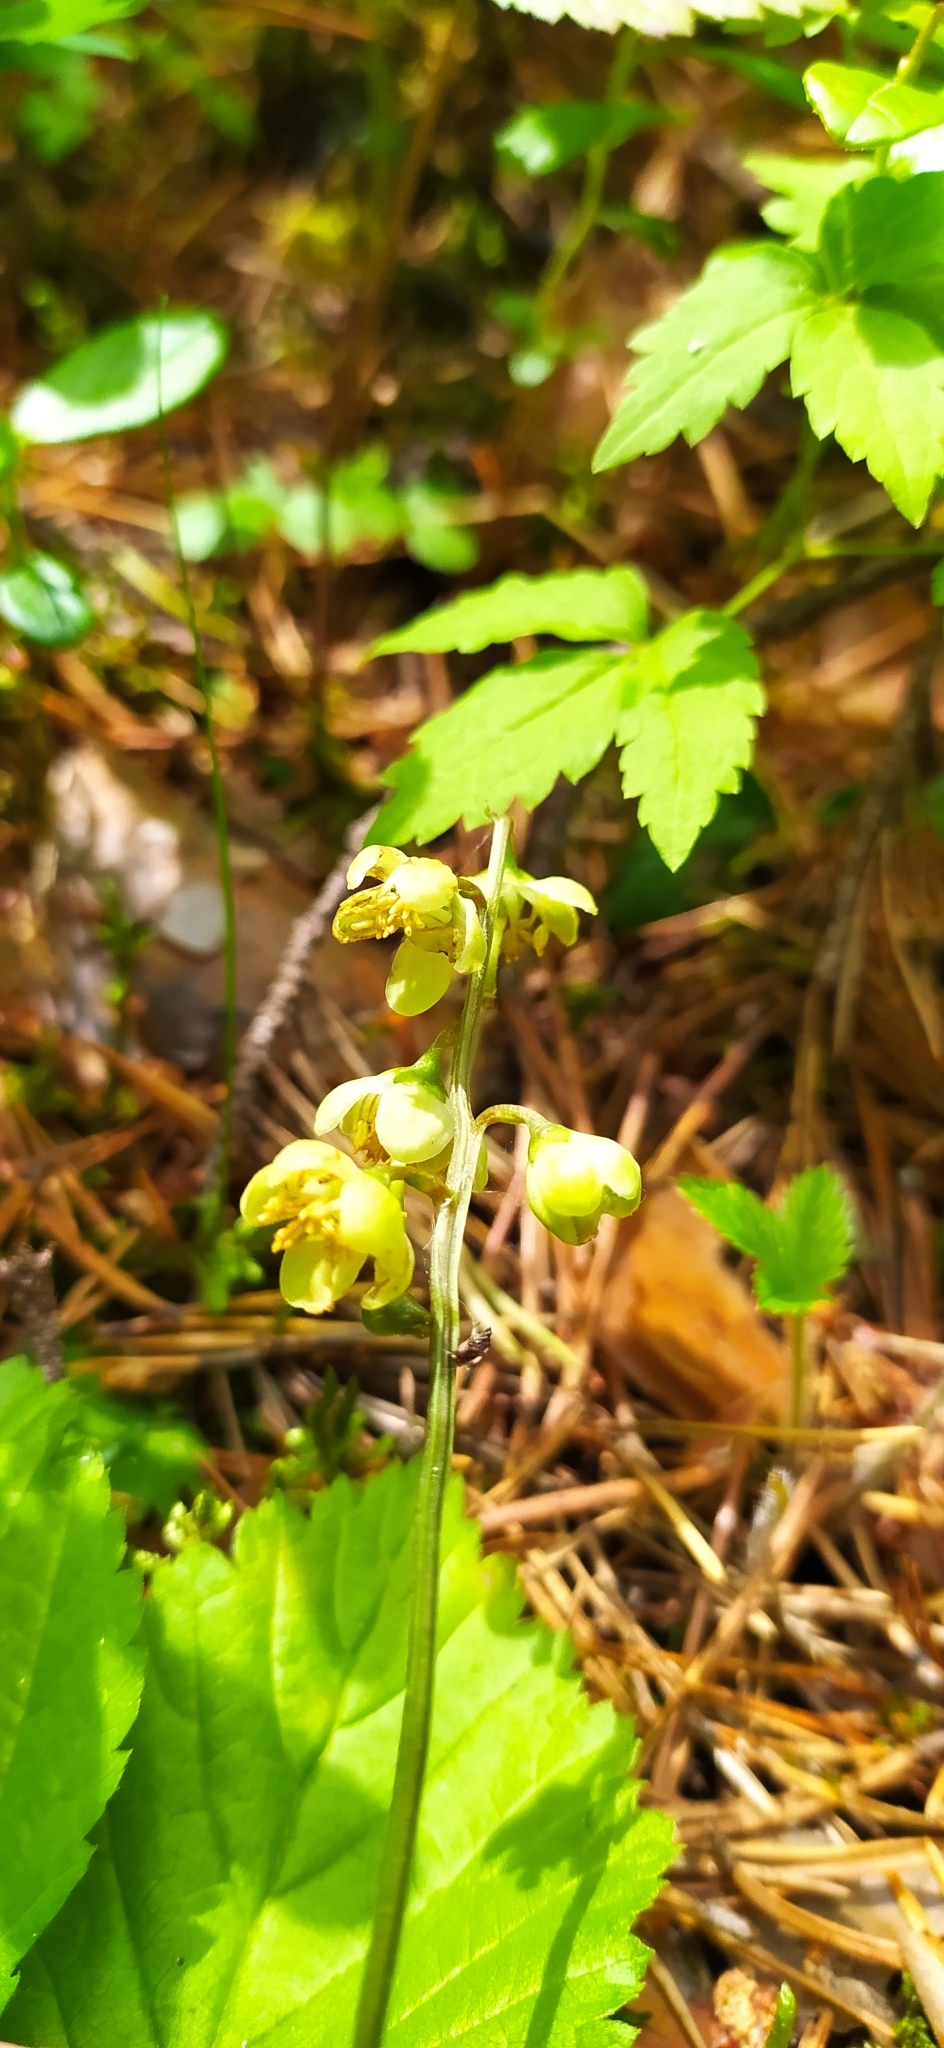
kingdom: Plantae
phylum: Tracheophyta
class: Magnoliopsida
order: Ericales
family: Ericaceae
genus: Pyrola
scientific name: Pyrola chlorantha
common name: Green wintergreen
